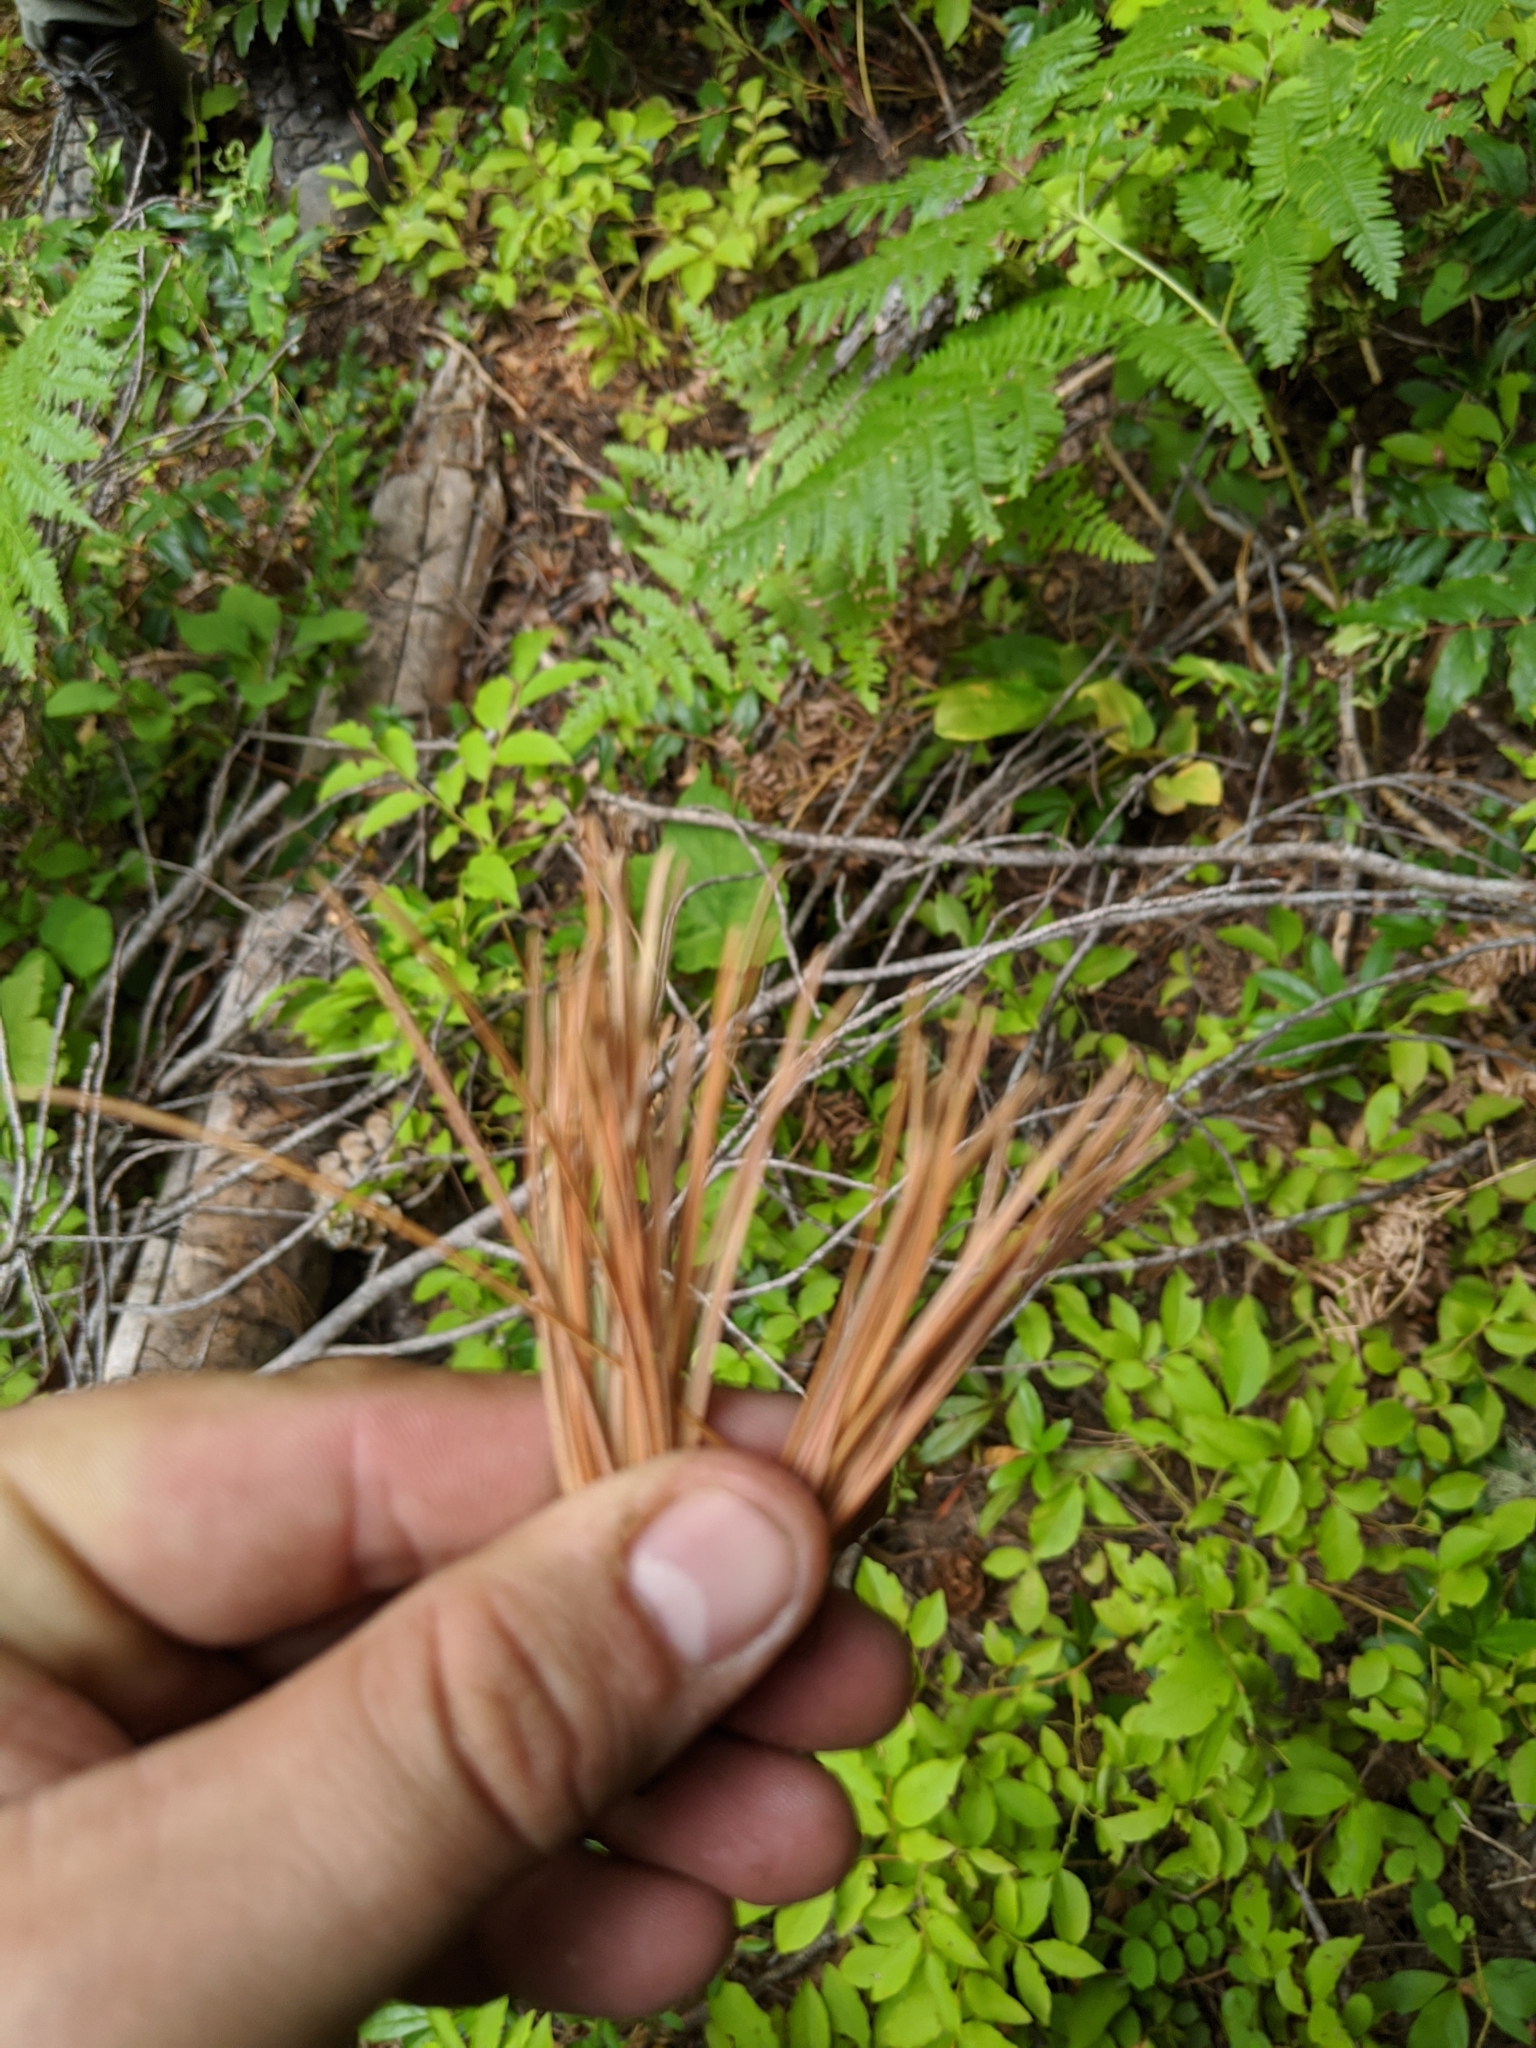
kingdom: Plantae
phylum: Tracheophyta
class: Pinopsida
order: Pinales
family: Pinaceae
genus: Pinus
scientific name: Pinus monticola
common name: Western white pine
